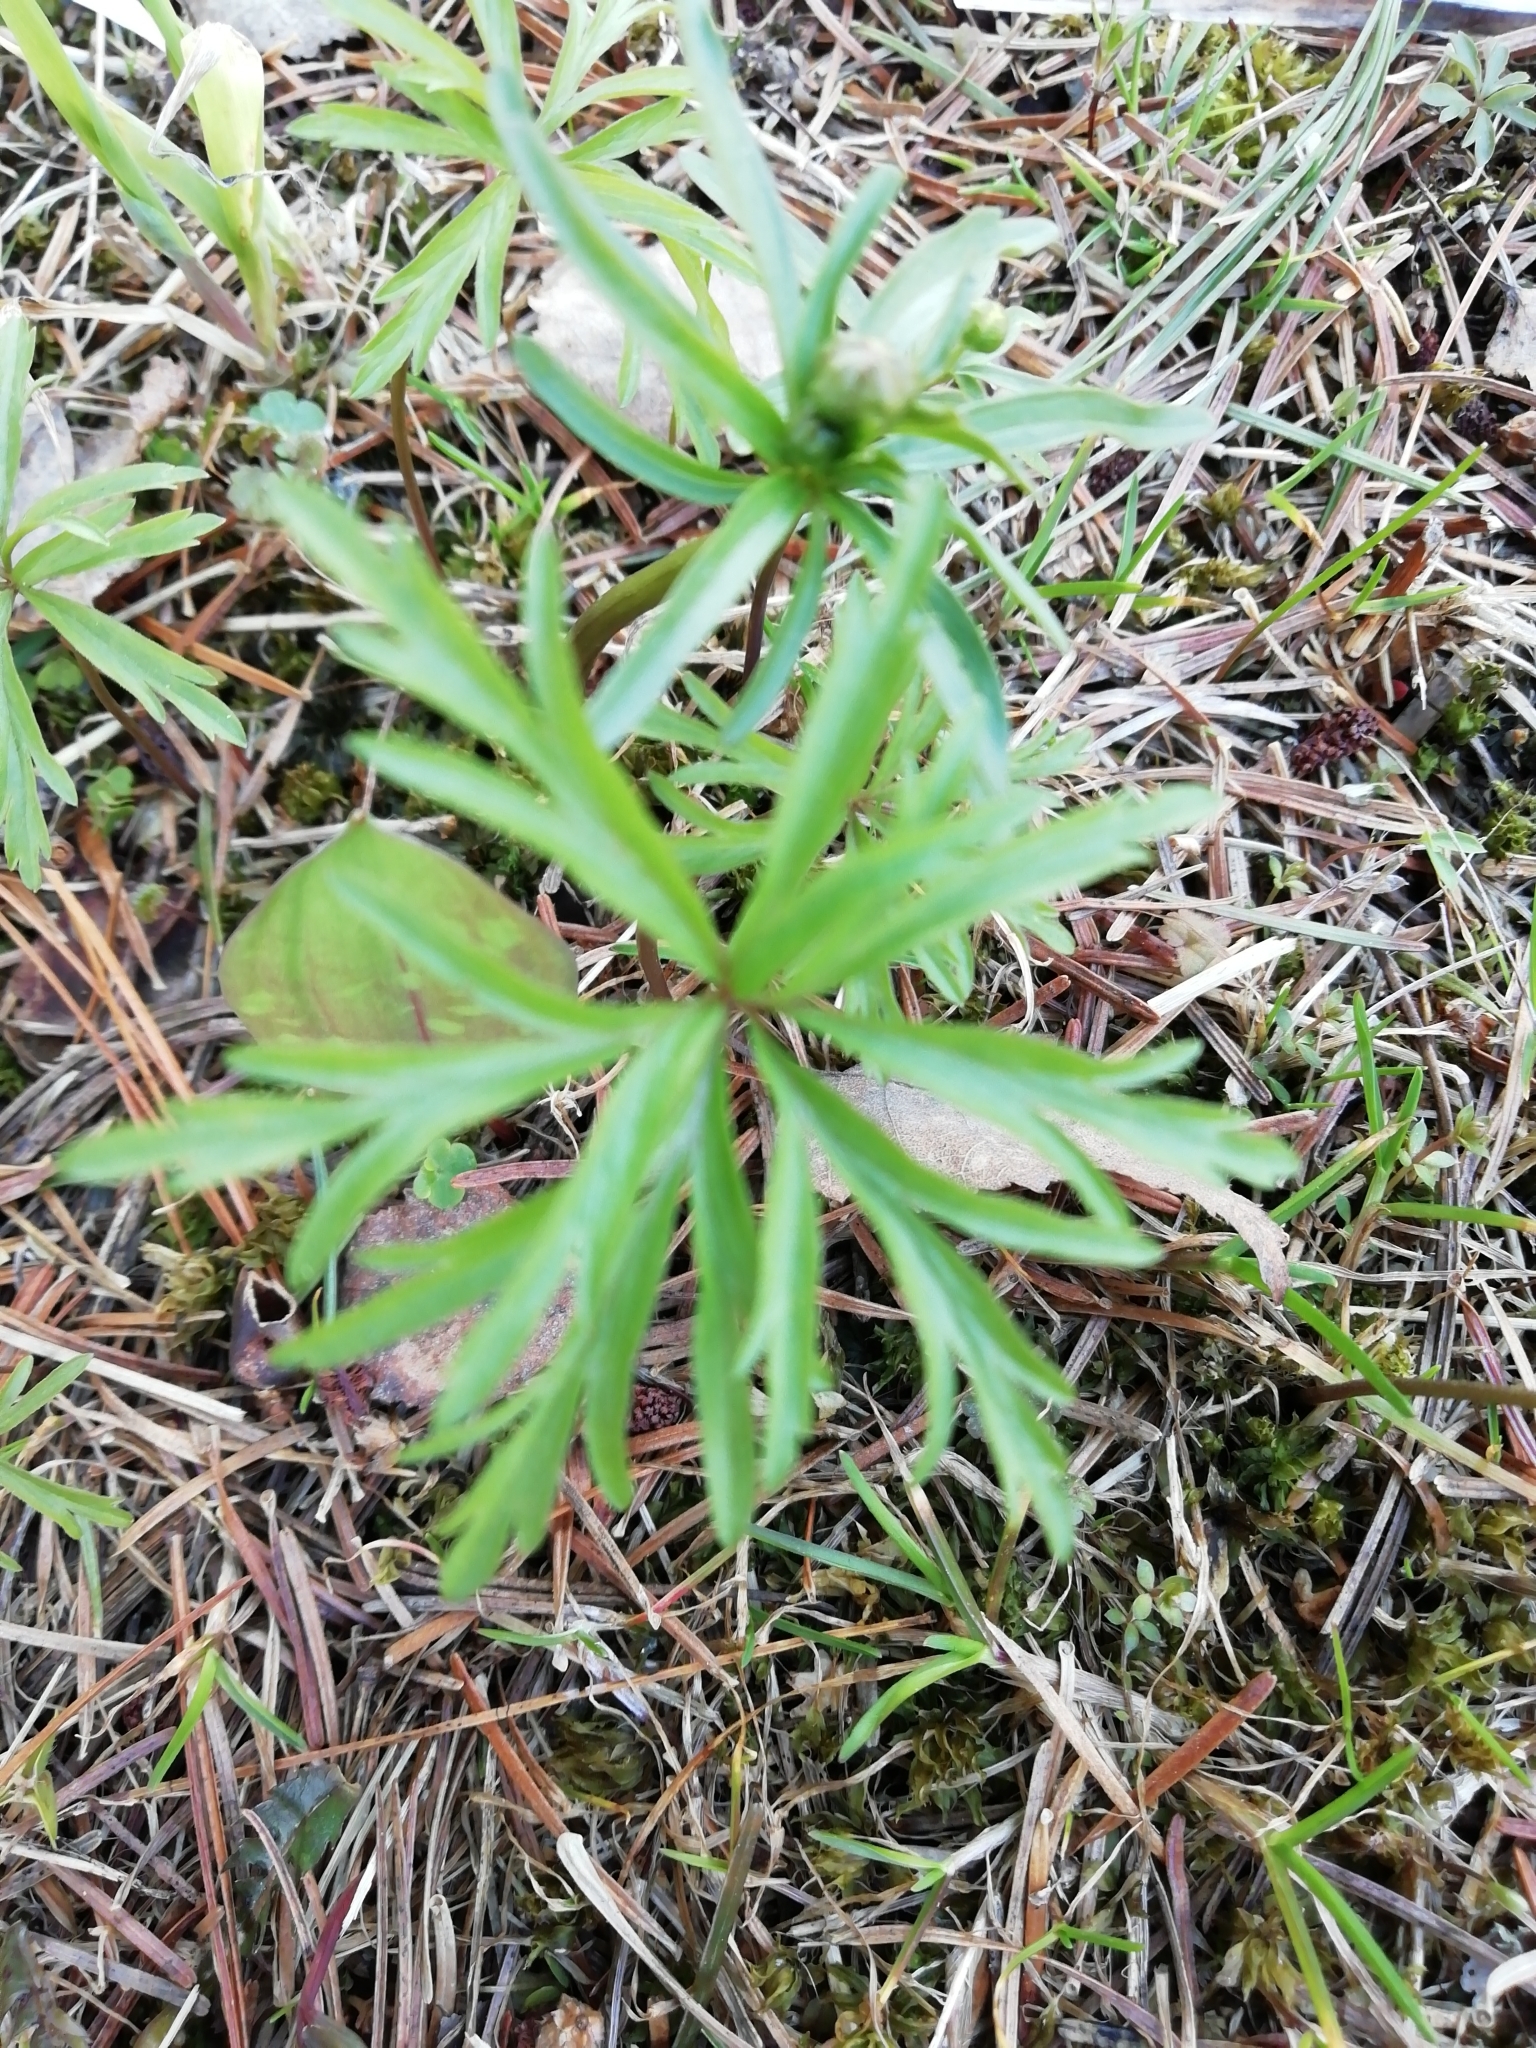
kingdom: Plantae
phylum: Tracheophyta
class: Magnoliopsida
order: Ranunculales
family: Ranunculaceae
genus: Anemone
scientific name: Anemone caerulea
